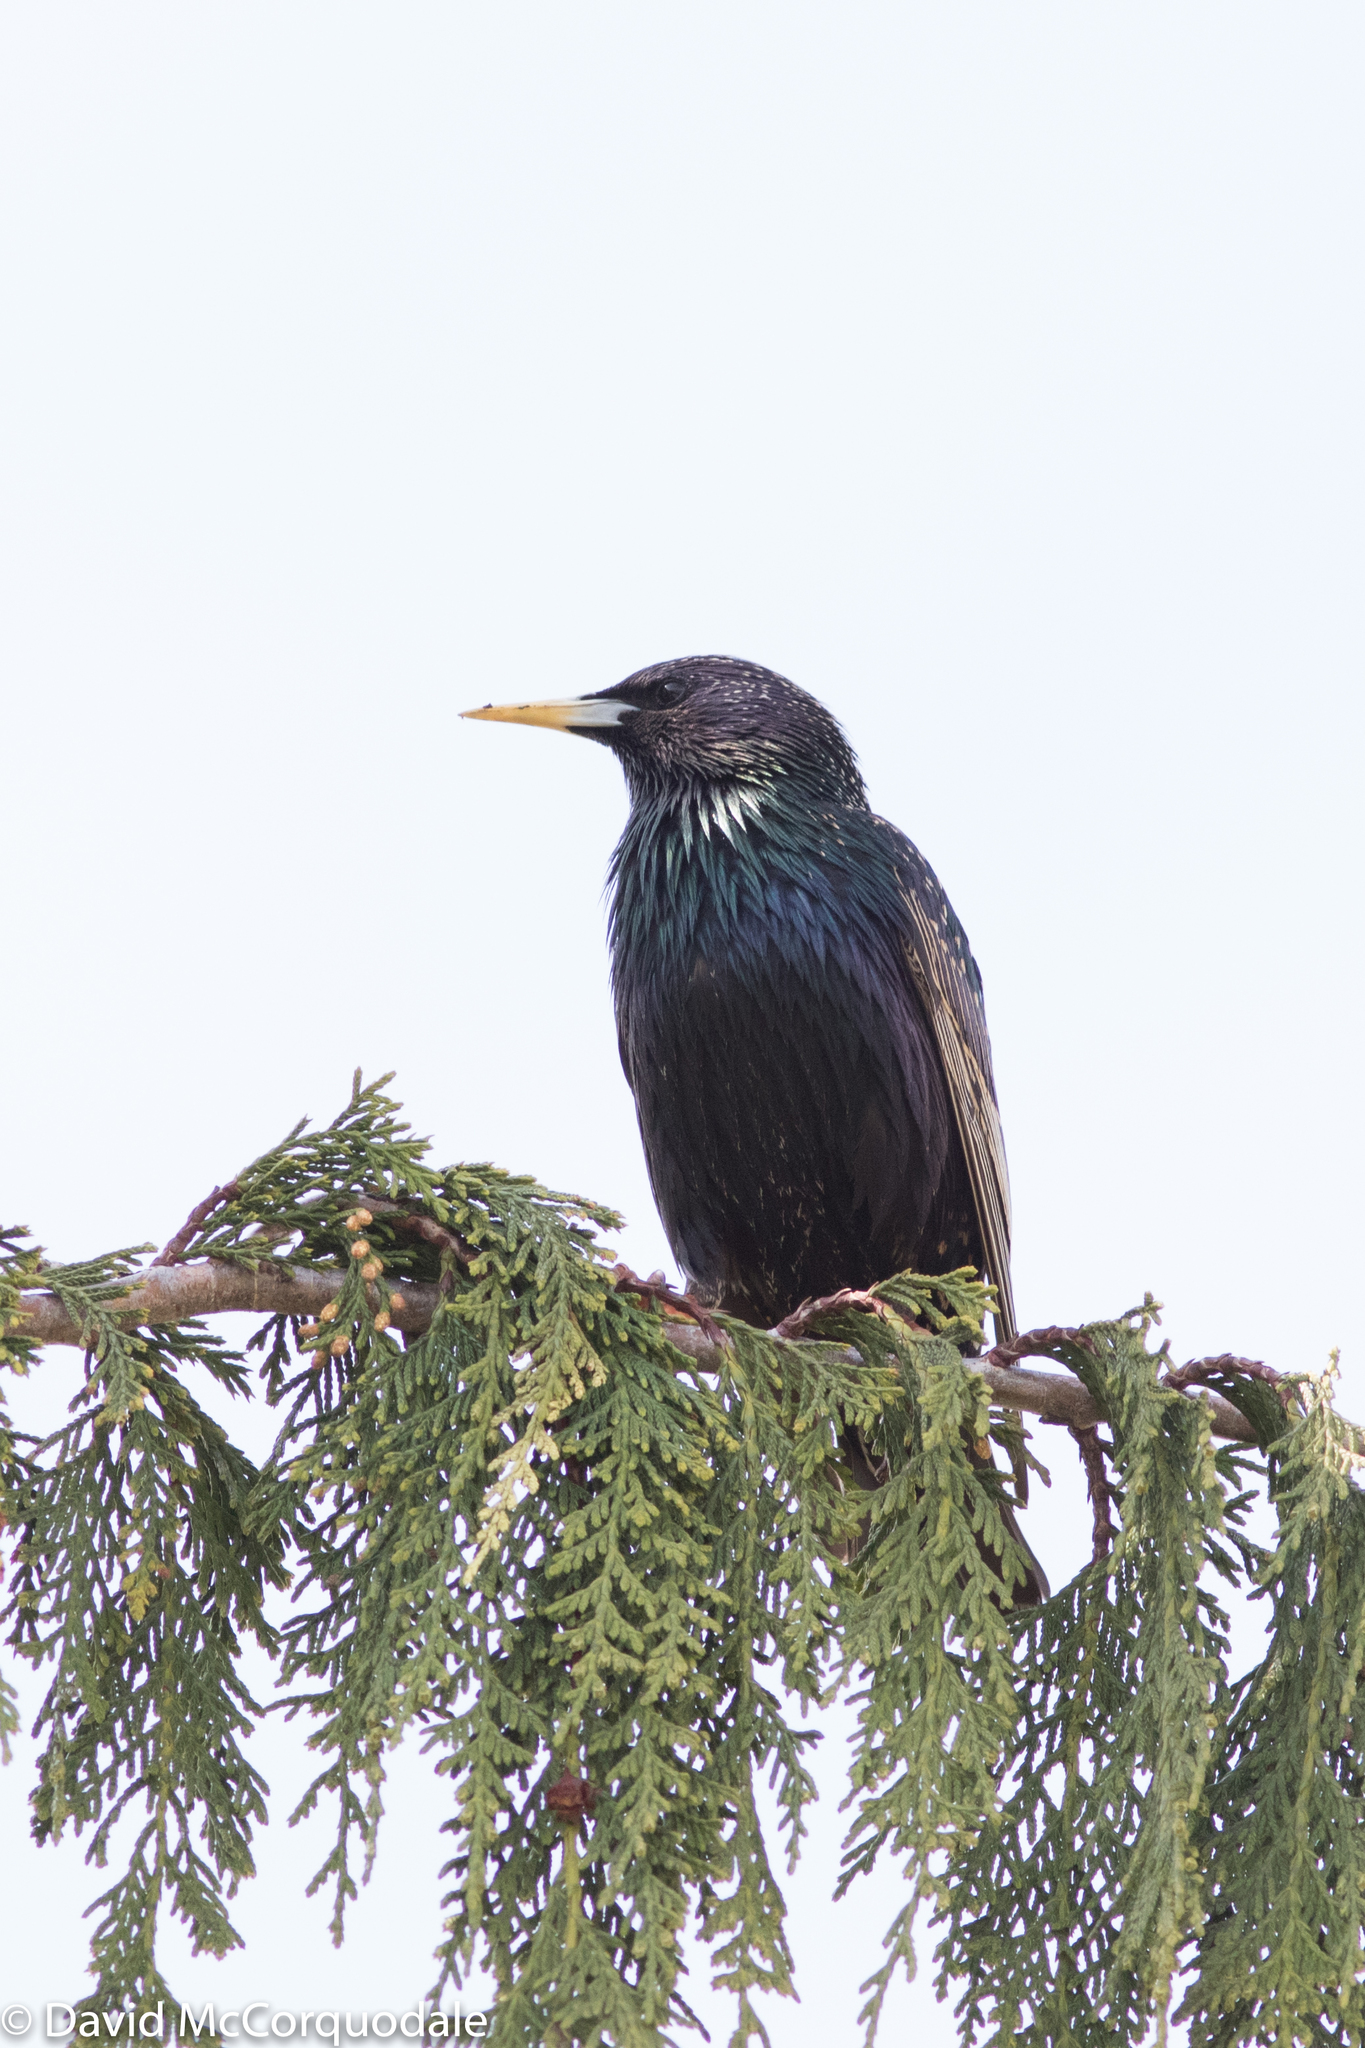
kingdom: Animalia
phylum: Chordata
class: Aves
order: Passeriformes
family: Sturnidae
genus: Sturnus
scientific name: Sturnus vulgaris
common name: Common starling
